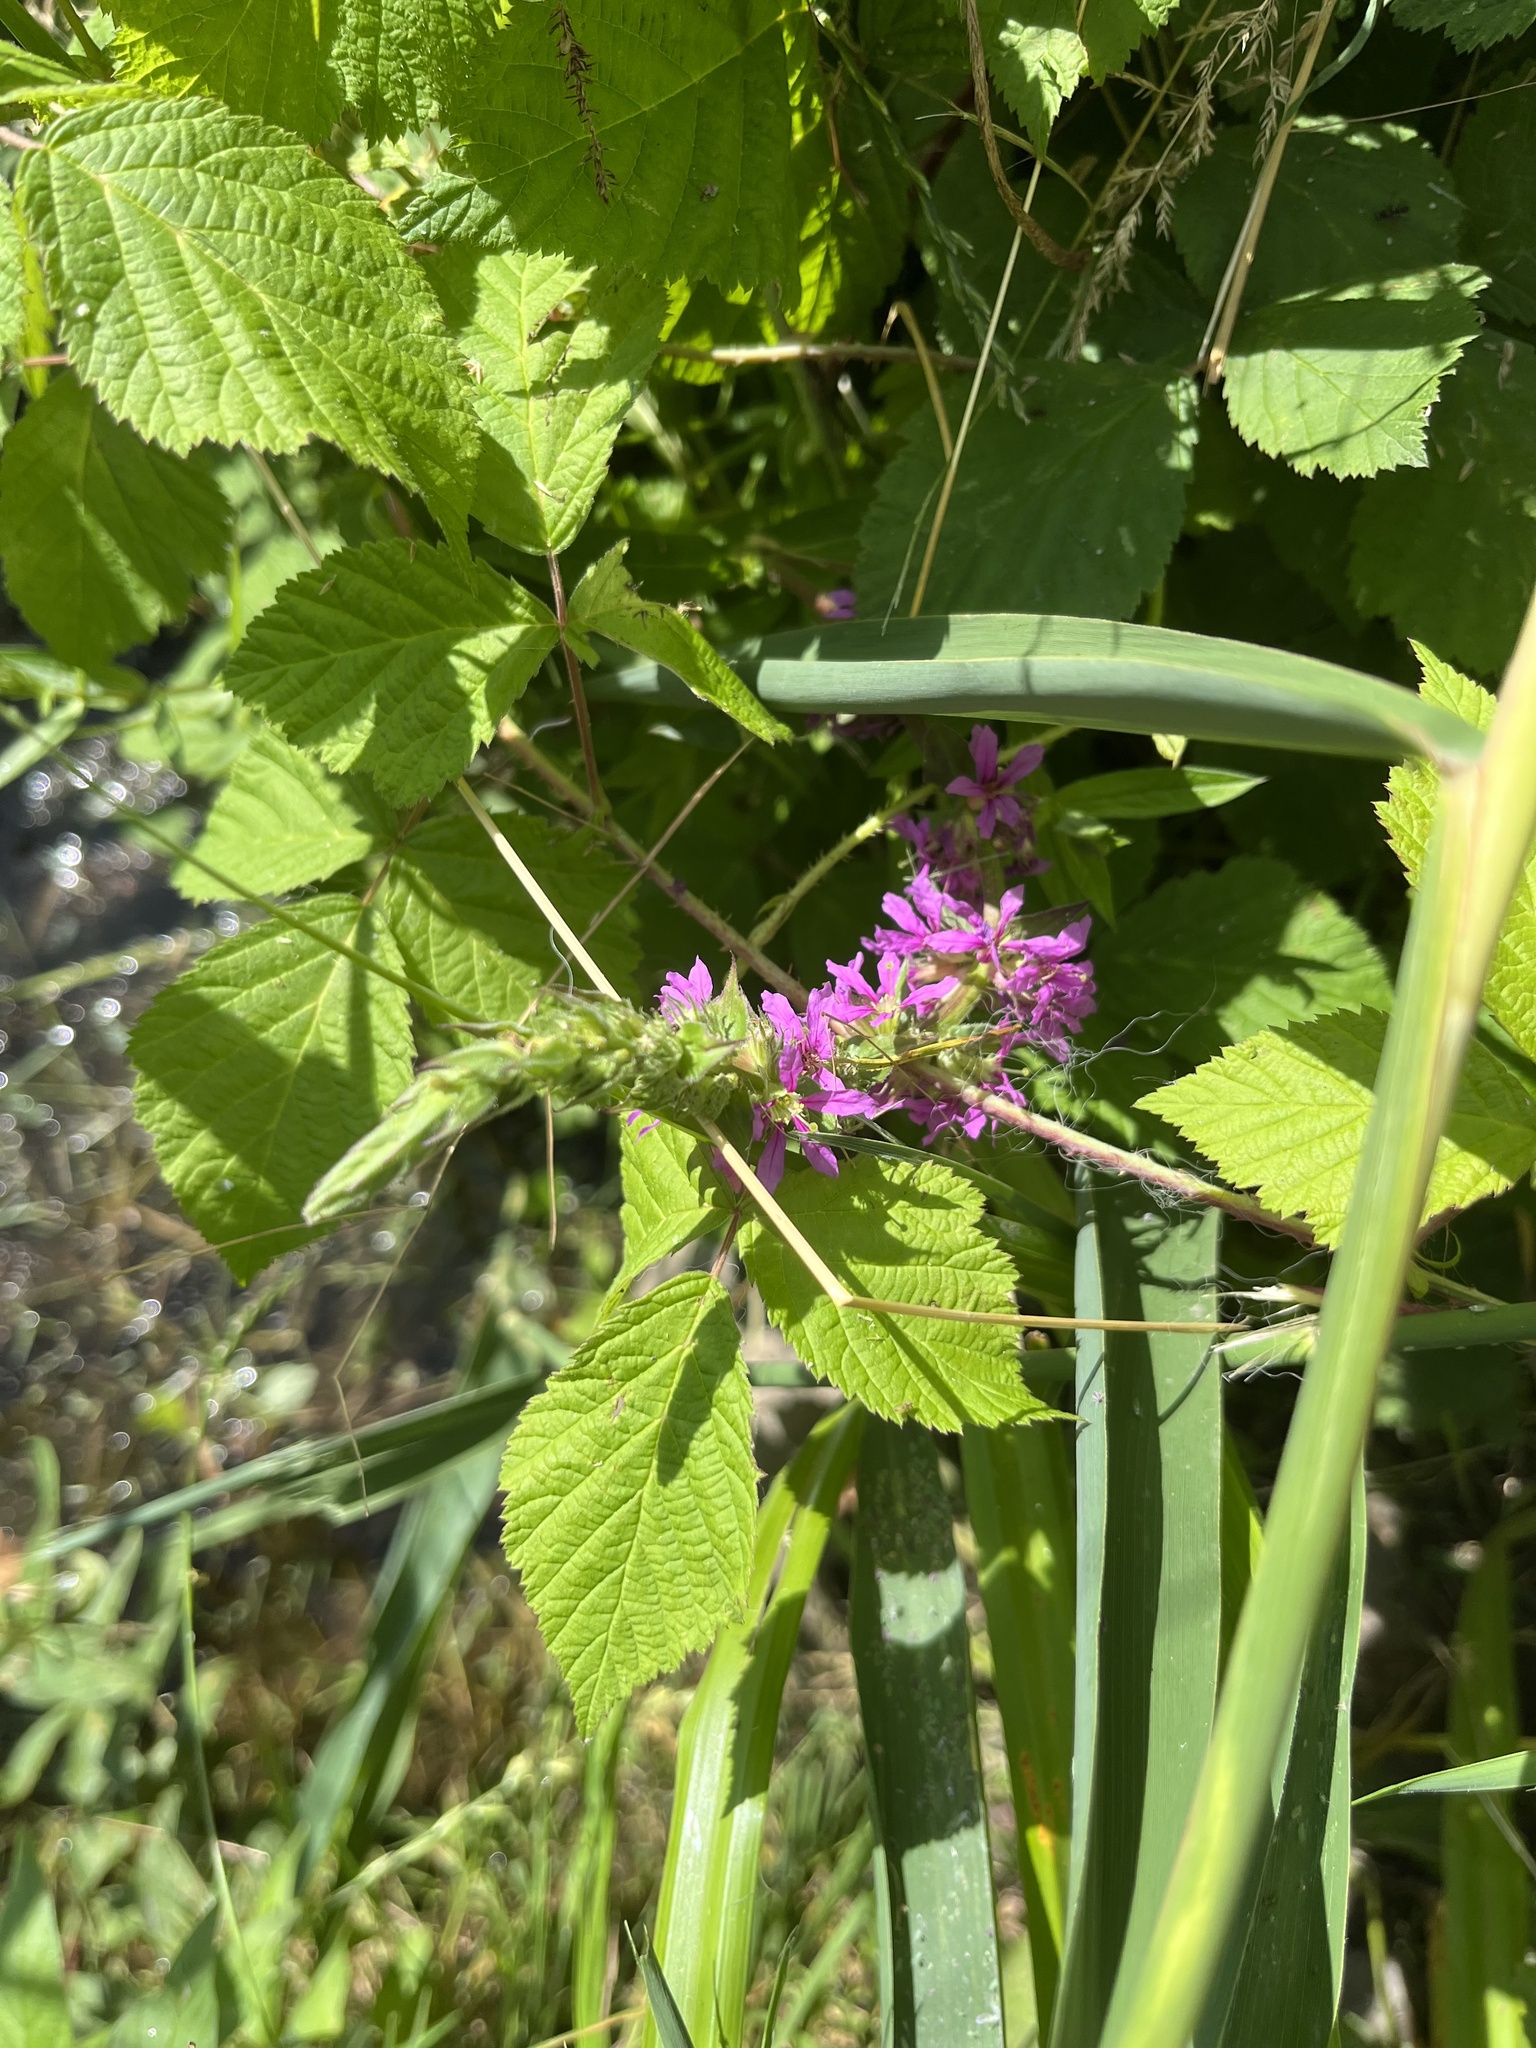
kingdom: Plantae
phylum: Tracheophyta
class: Magnoliopsida
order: Myrtales
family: Lythraceae
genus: Lythrum
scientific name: Lythrum salicaria
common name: Purple loosestrife
